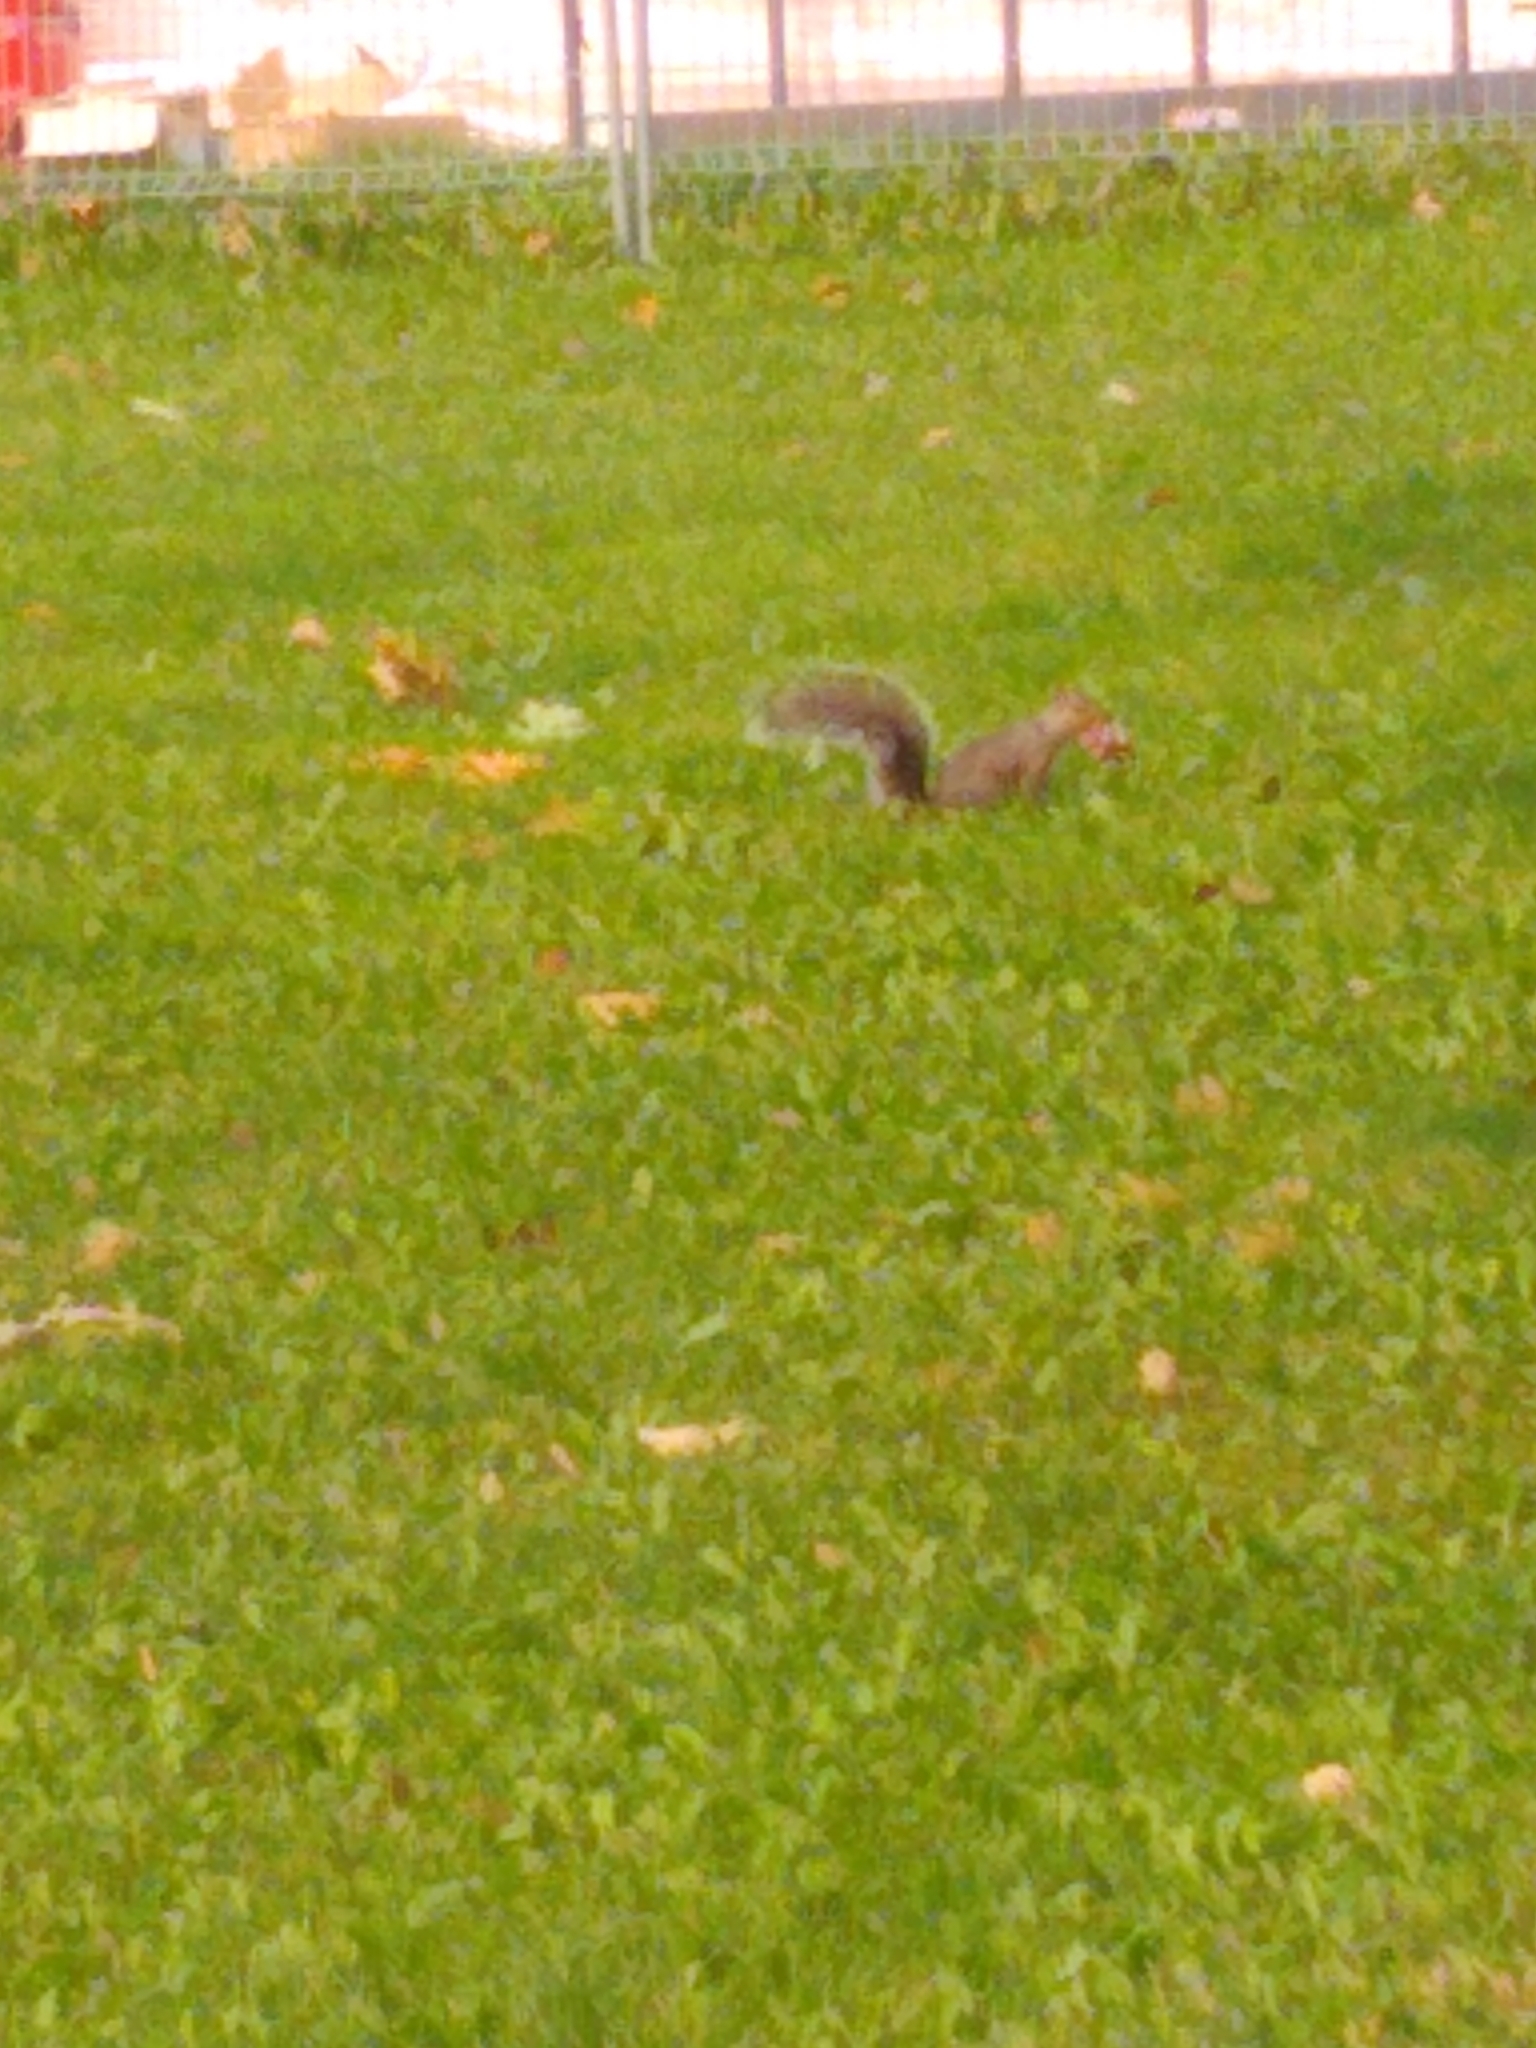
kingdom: Animalia
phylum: Chordata
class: Mammalia
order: Rodentia
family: Sciuridae
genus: Sciurus
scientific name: Sciurus carolinensis
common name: Eastern gray squirrel
